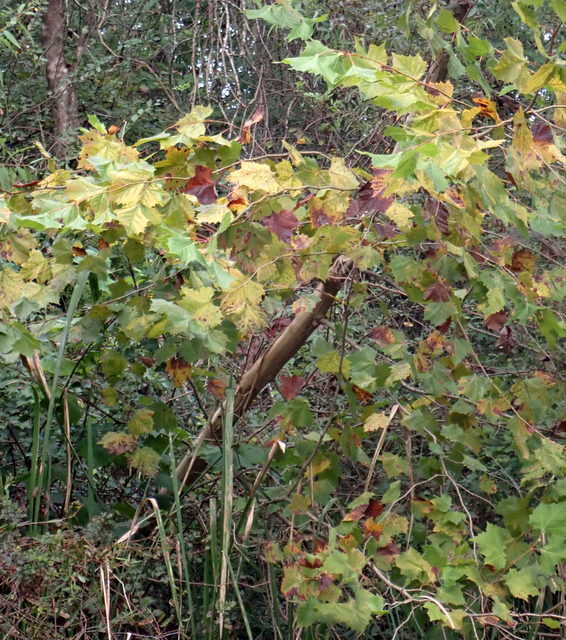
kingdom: Plantae
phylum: Tracheophyta
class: Magnoliopsida
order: Proteales
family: Platanaceae
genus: Platanus
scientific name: Platanus occidentalis
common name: American sycamore
